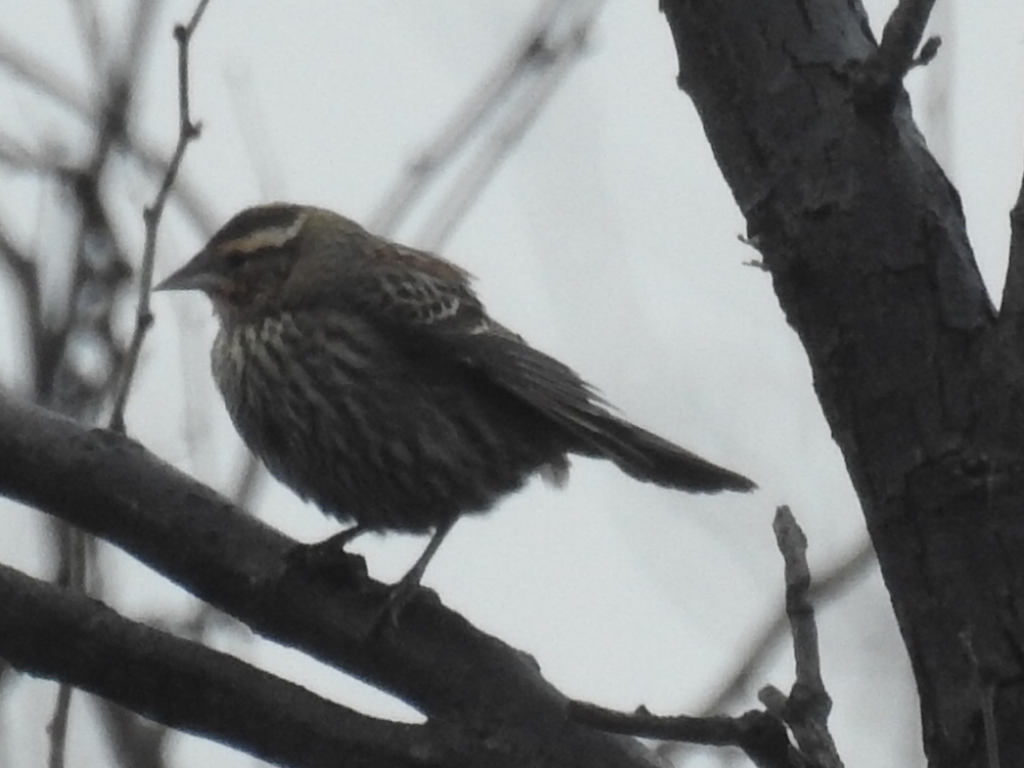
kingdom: Animalia
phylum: Chordata
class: Aves
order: Passeriformes
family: Icteridae
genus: Agelaius
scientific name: Agelaius phoeniceus
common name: Red-winged blackbird
